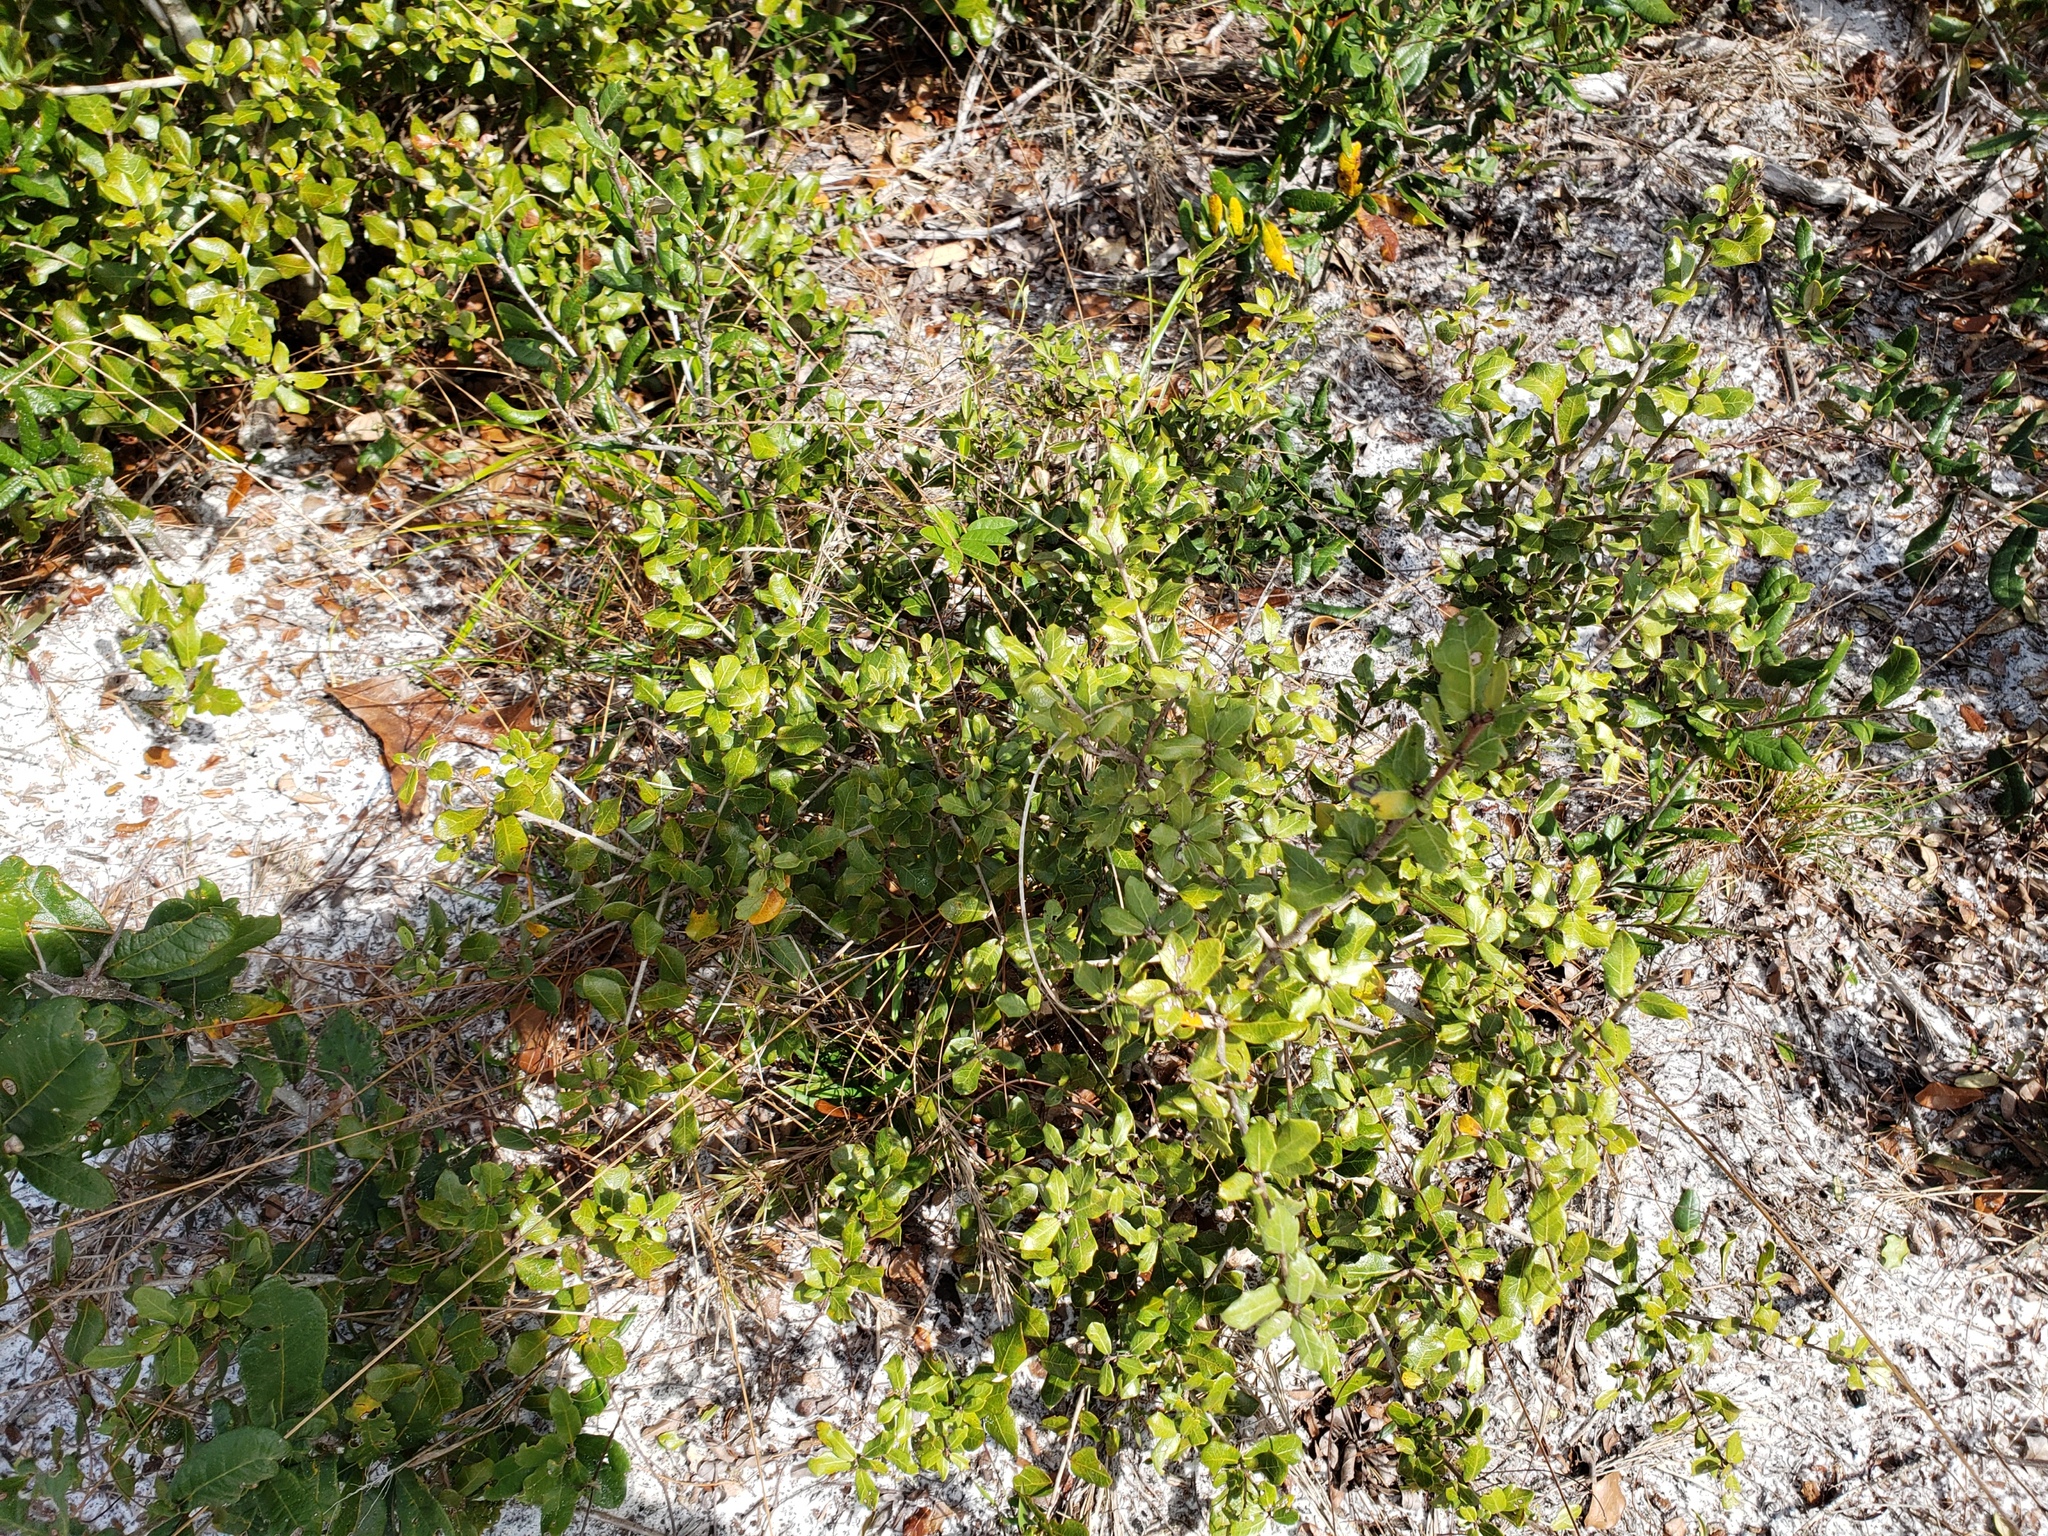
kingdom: Plantae
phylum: Tracheophyta
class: Magnoliopsida
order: Fagales
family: Fagaceae
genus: Quercus
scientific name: Quercus myrtifolia
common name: Myrtle oak
